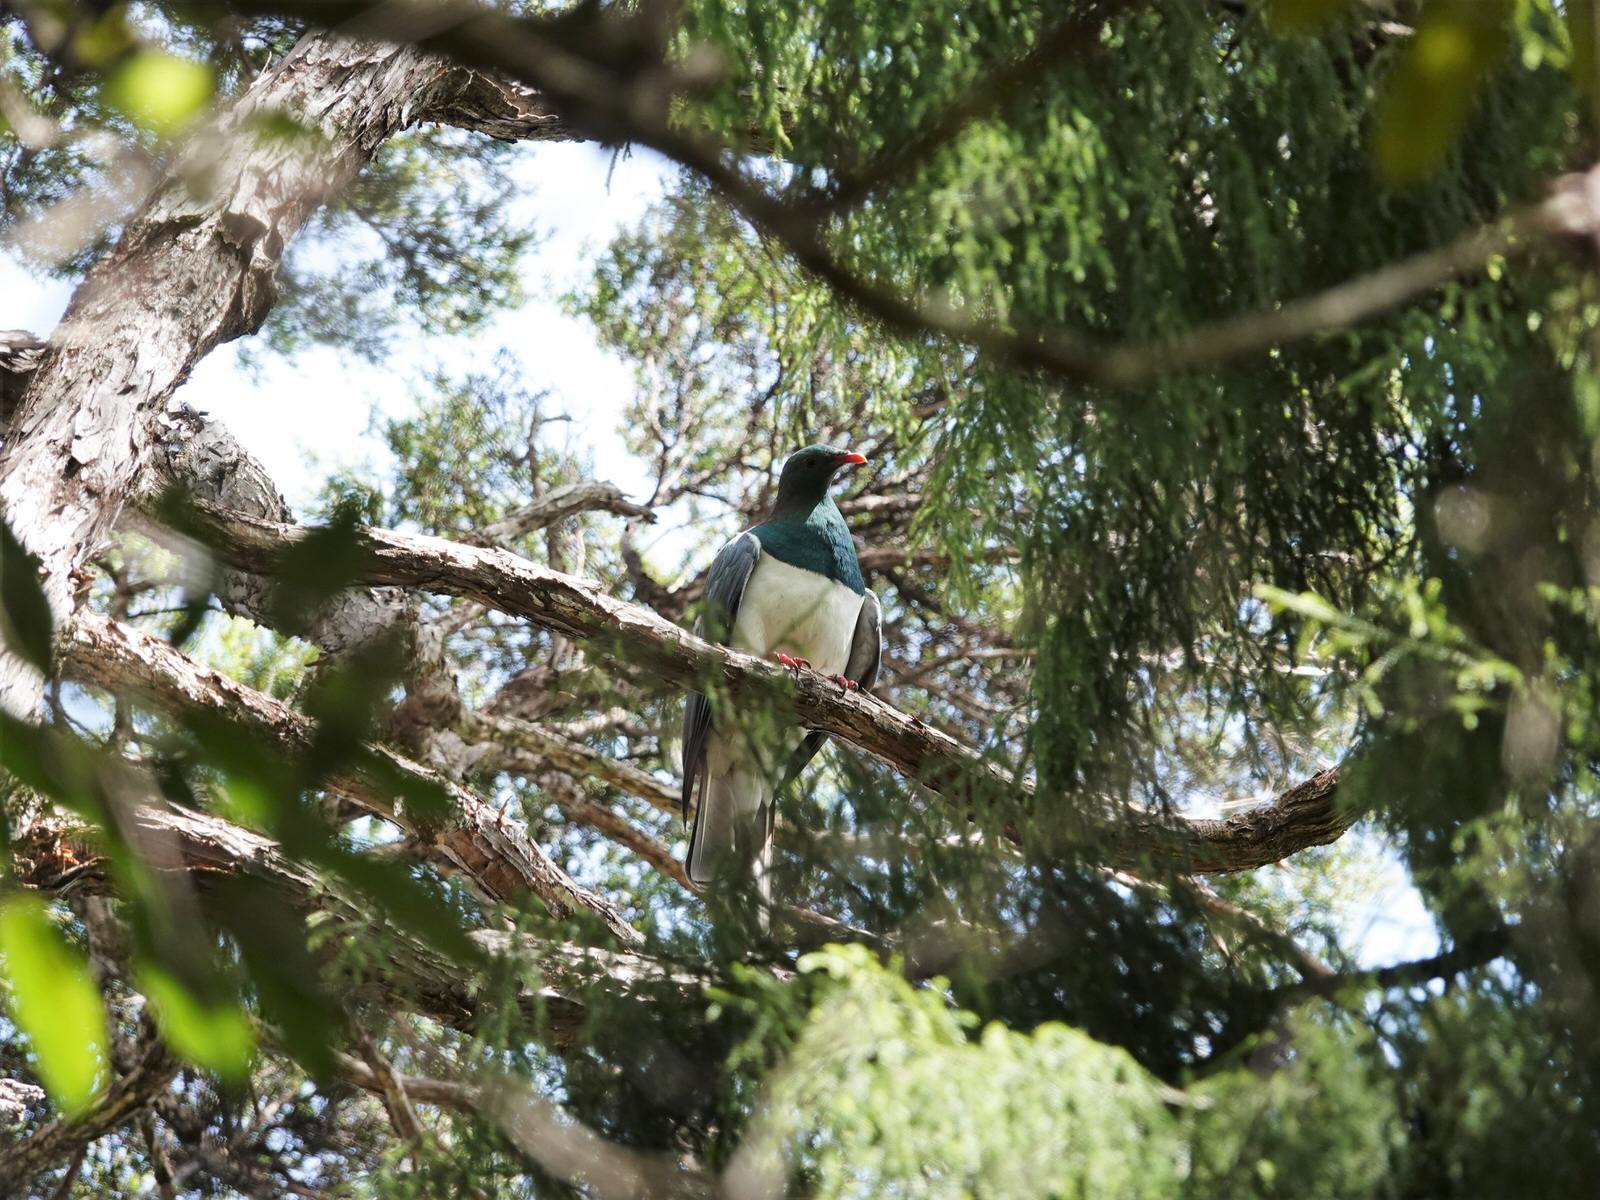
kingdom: Animalia
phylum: Chordata
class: Aves
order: Columbiformes
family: Columbidae
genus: Hemiphaga
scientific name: Hemiphaga novaeseelandiae
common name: New zealand pigeon
